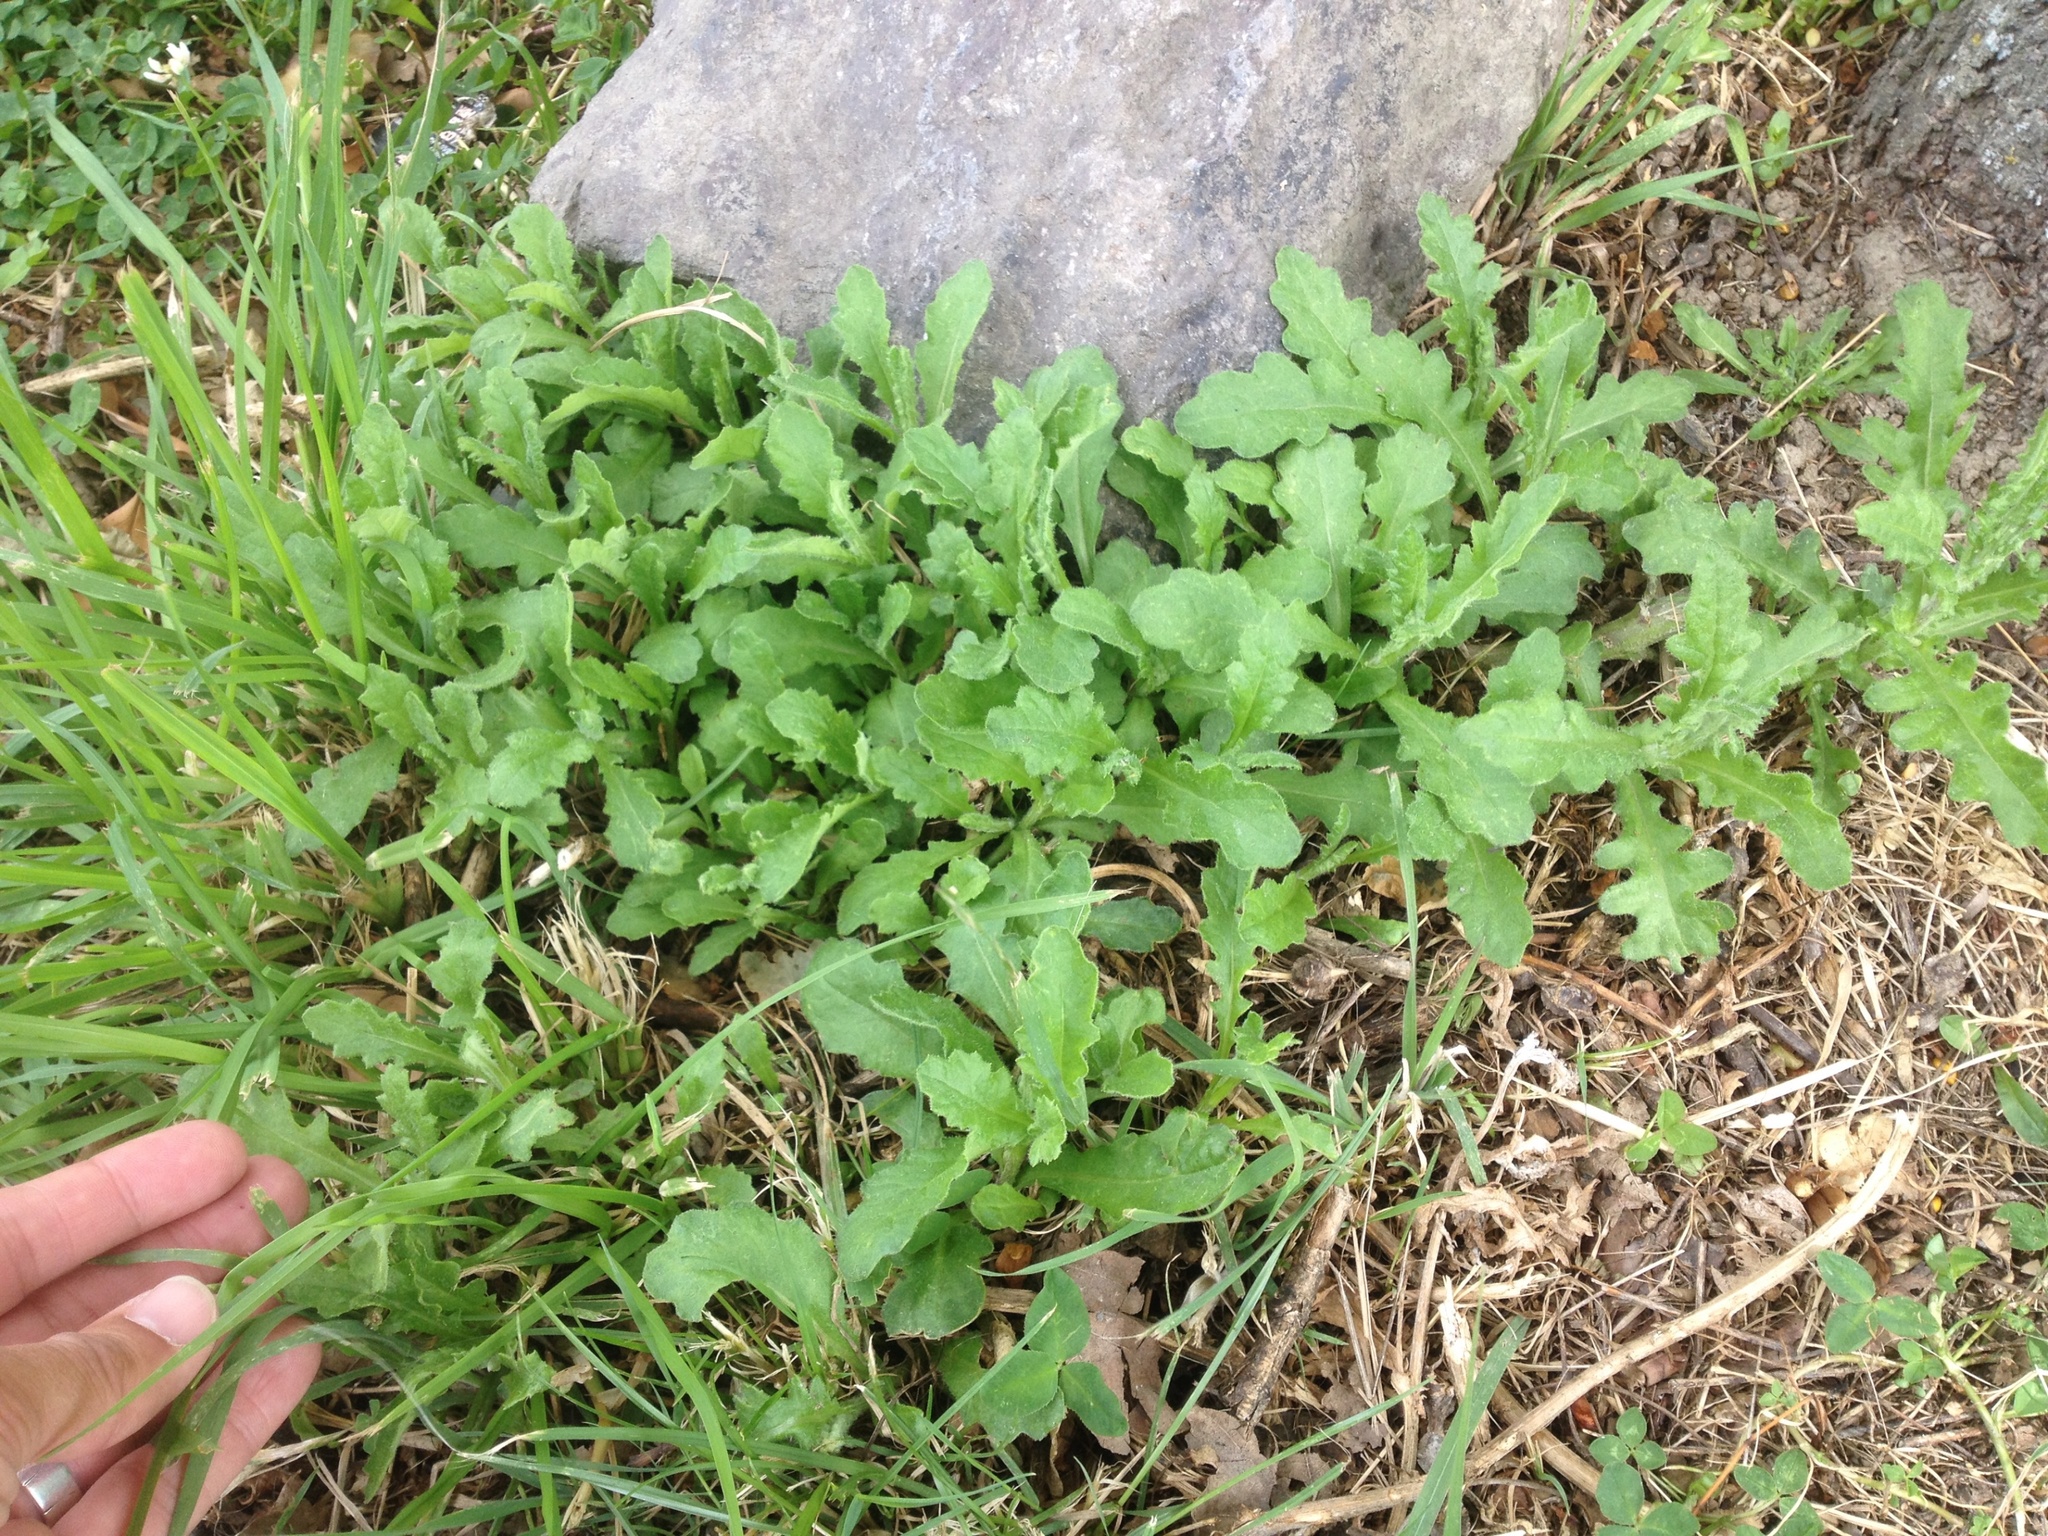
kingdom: Plantae
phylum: Tracheophyta
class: Magnoliopsida
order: Asterales
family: Asteraceae
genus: Senecio
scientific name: Senecio glomeratus
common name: Cutleaf burnweed
